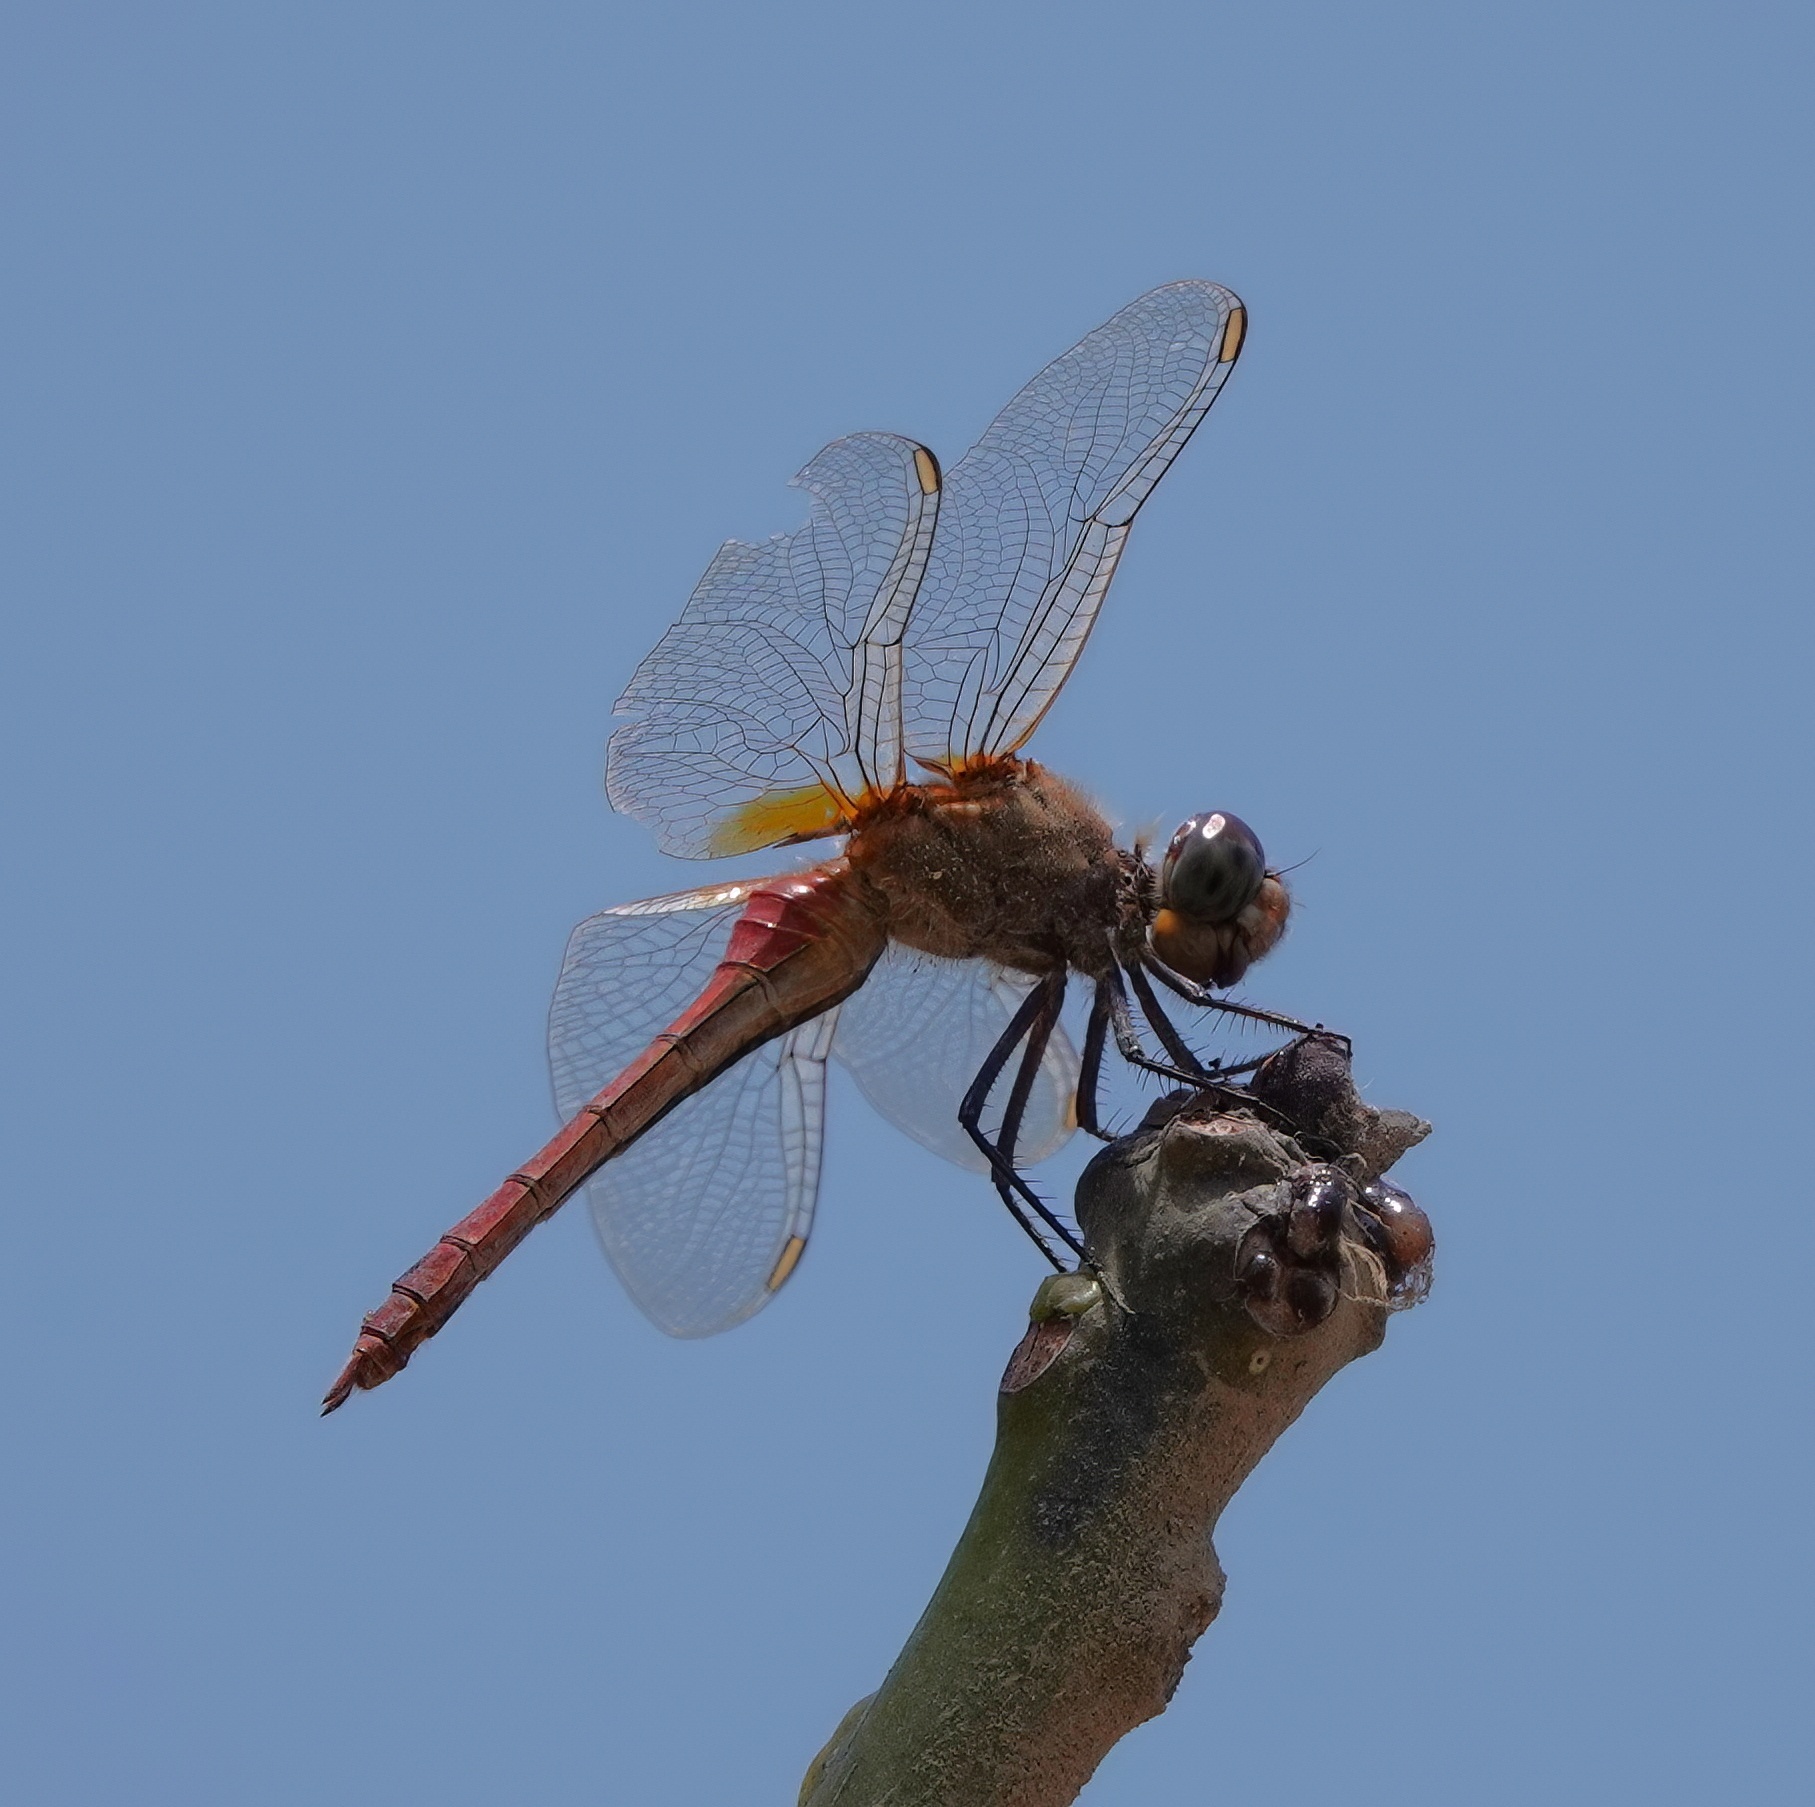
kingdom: Animalia
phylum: Arthropoda
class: Insecta
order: Odonata
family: Libellulidae
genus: Brachymesia
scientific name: Brachymesia furcata
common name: Red-taled pennant
